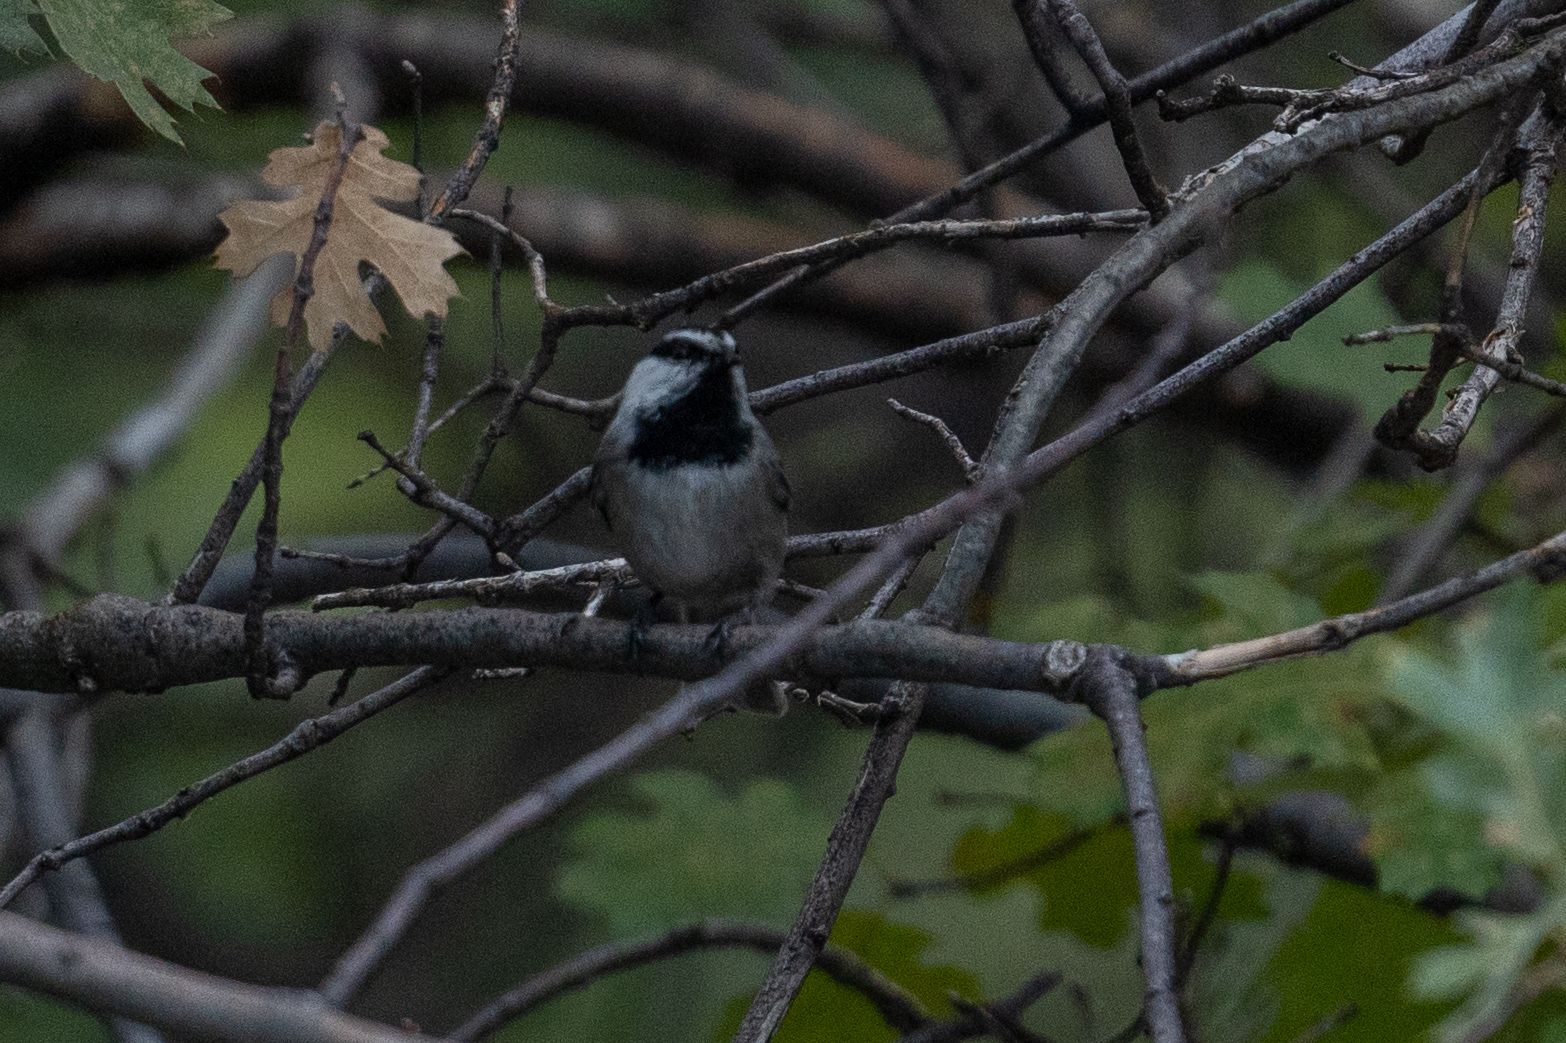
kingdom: Animalia
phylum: Chordata
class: Aves
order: Passeriformes
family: Paridae
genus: Poecile
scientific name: Poecile gambeli
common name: Mountain chickadee
